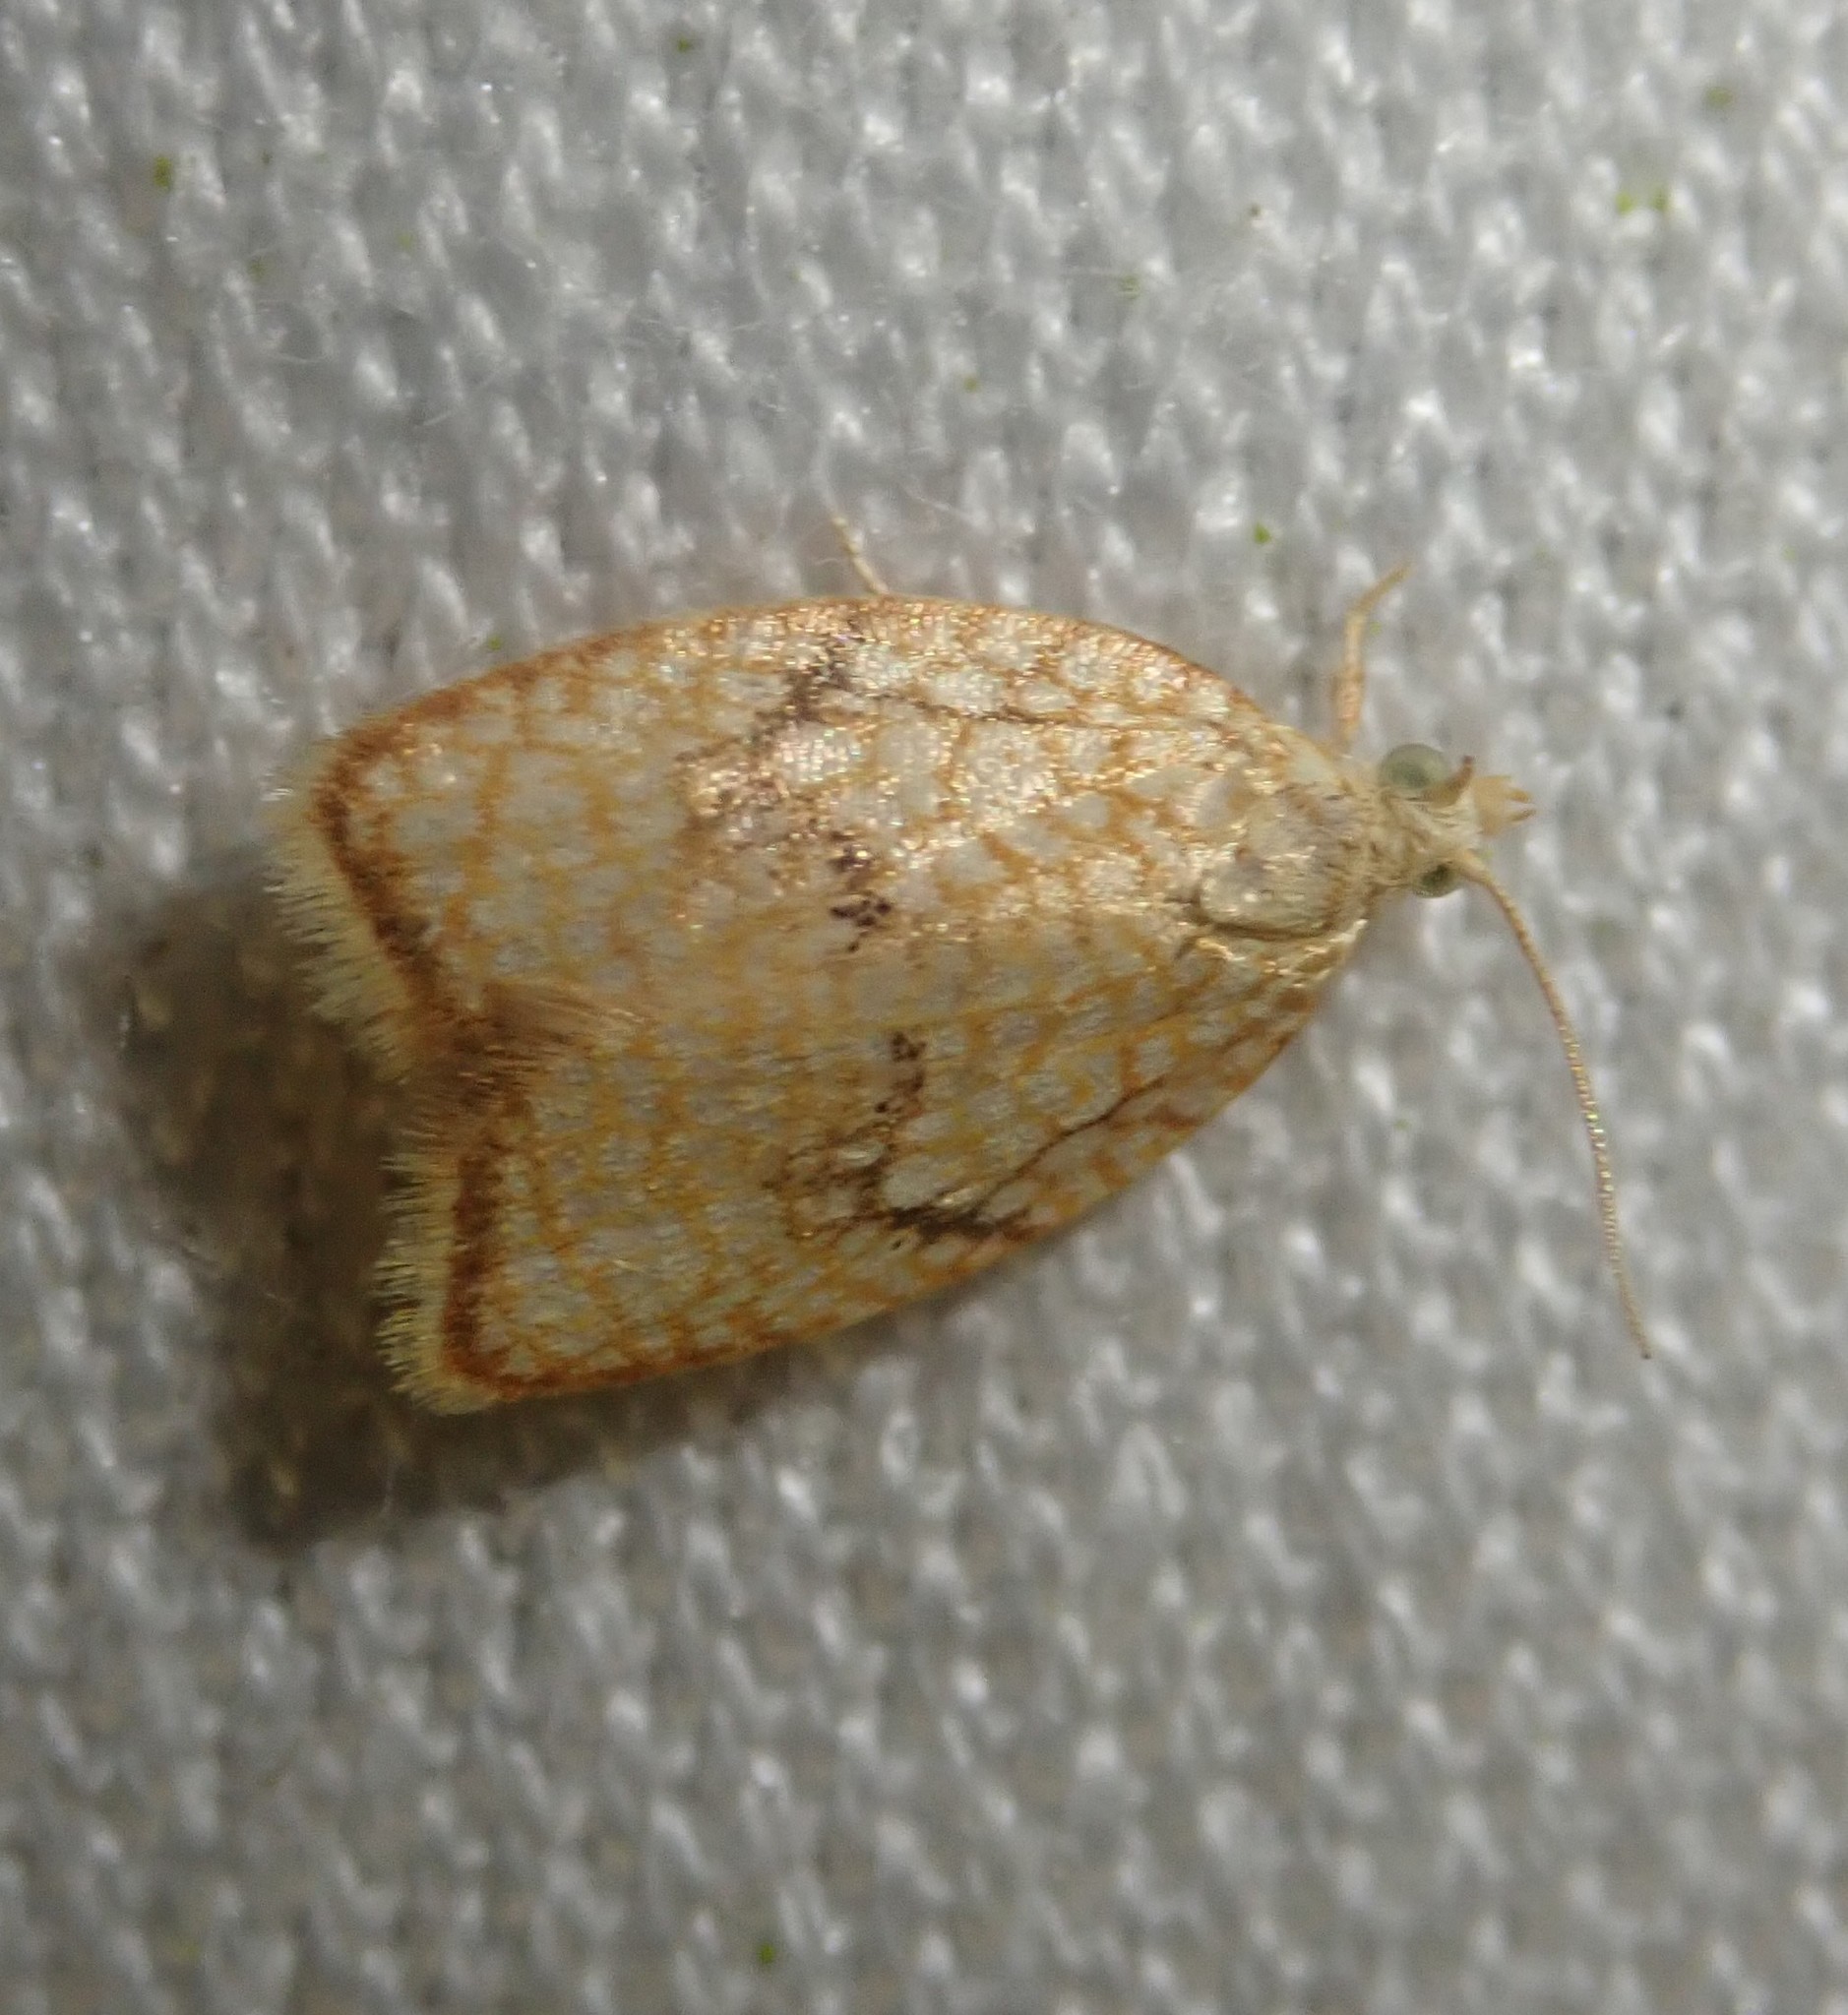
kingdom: Animalia
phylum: Arthropoda
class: Insecta
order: Lepidoptera
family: Tortricidae
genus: Acleris
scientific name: Acleris forsskaleana
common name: Maple button
